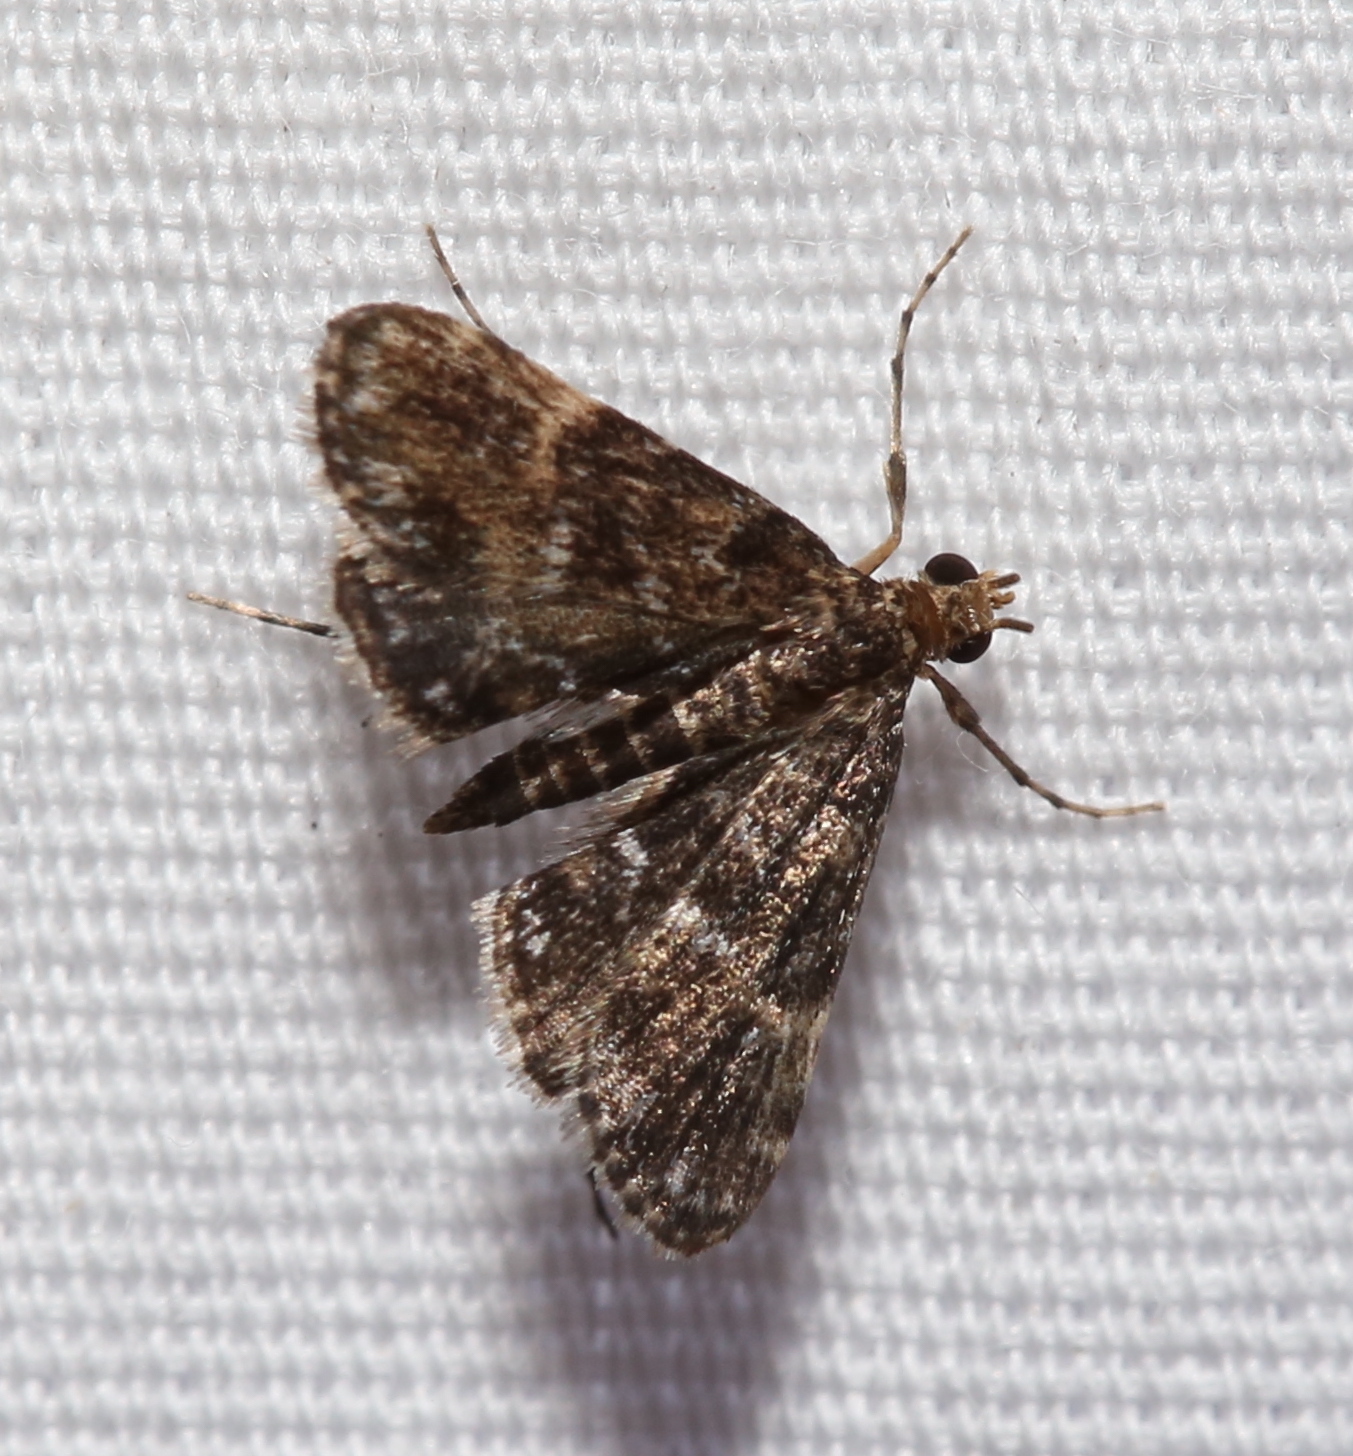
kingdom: Animalia
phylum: Arthropoda
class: Insecta
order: Lepidoptera
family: Crambidae
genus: Elophila
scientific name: Elophila obliteralis
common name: Waterlily leafcutter moth
